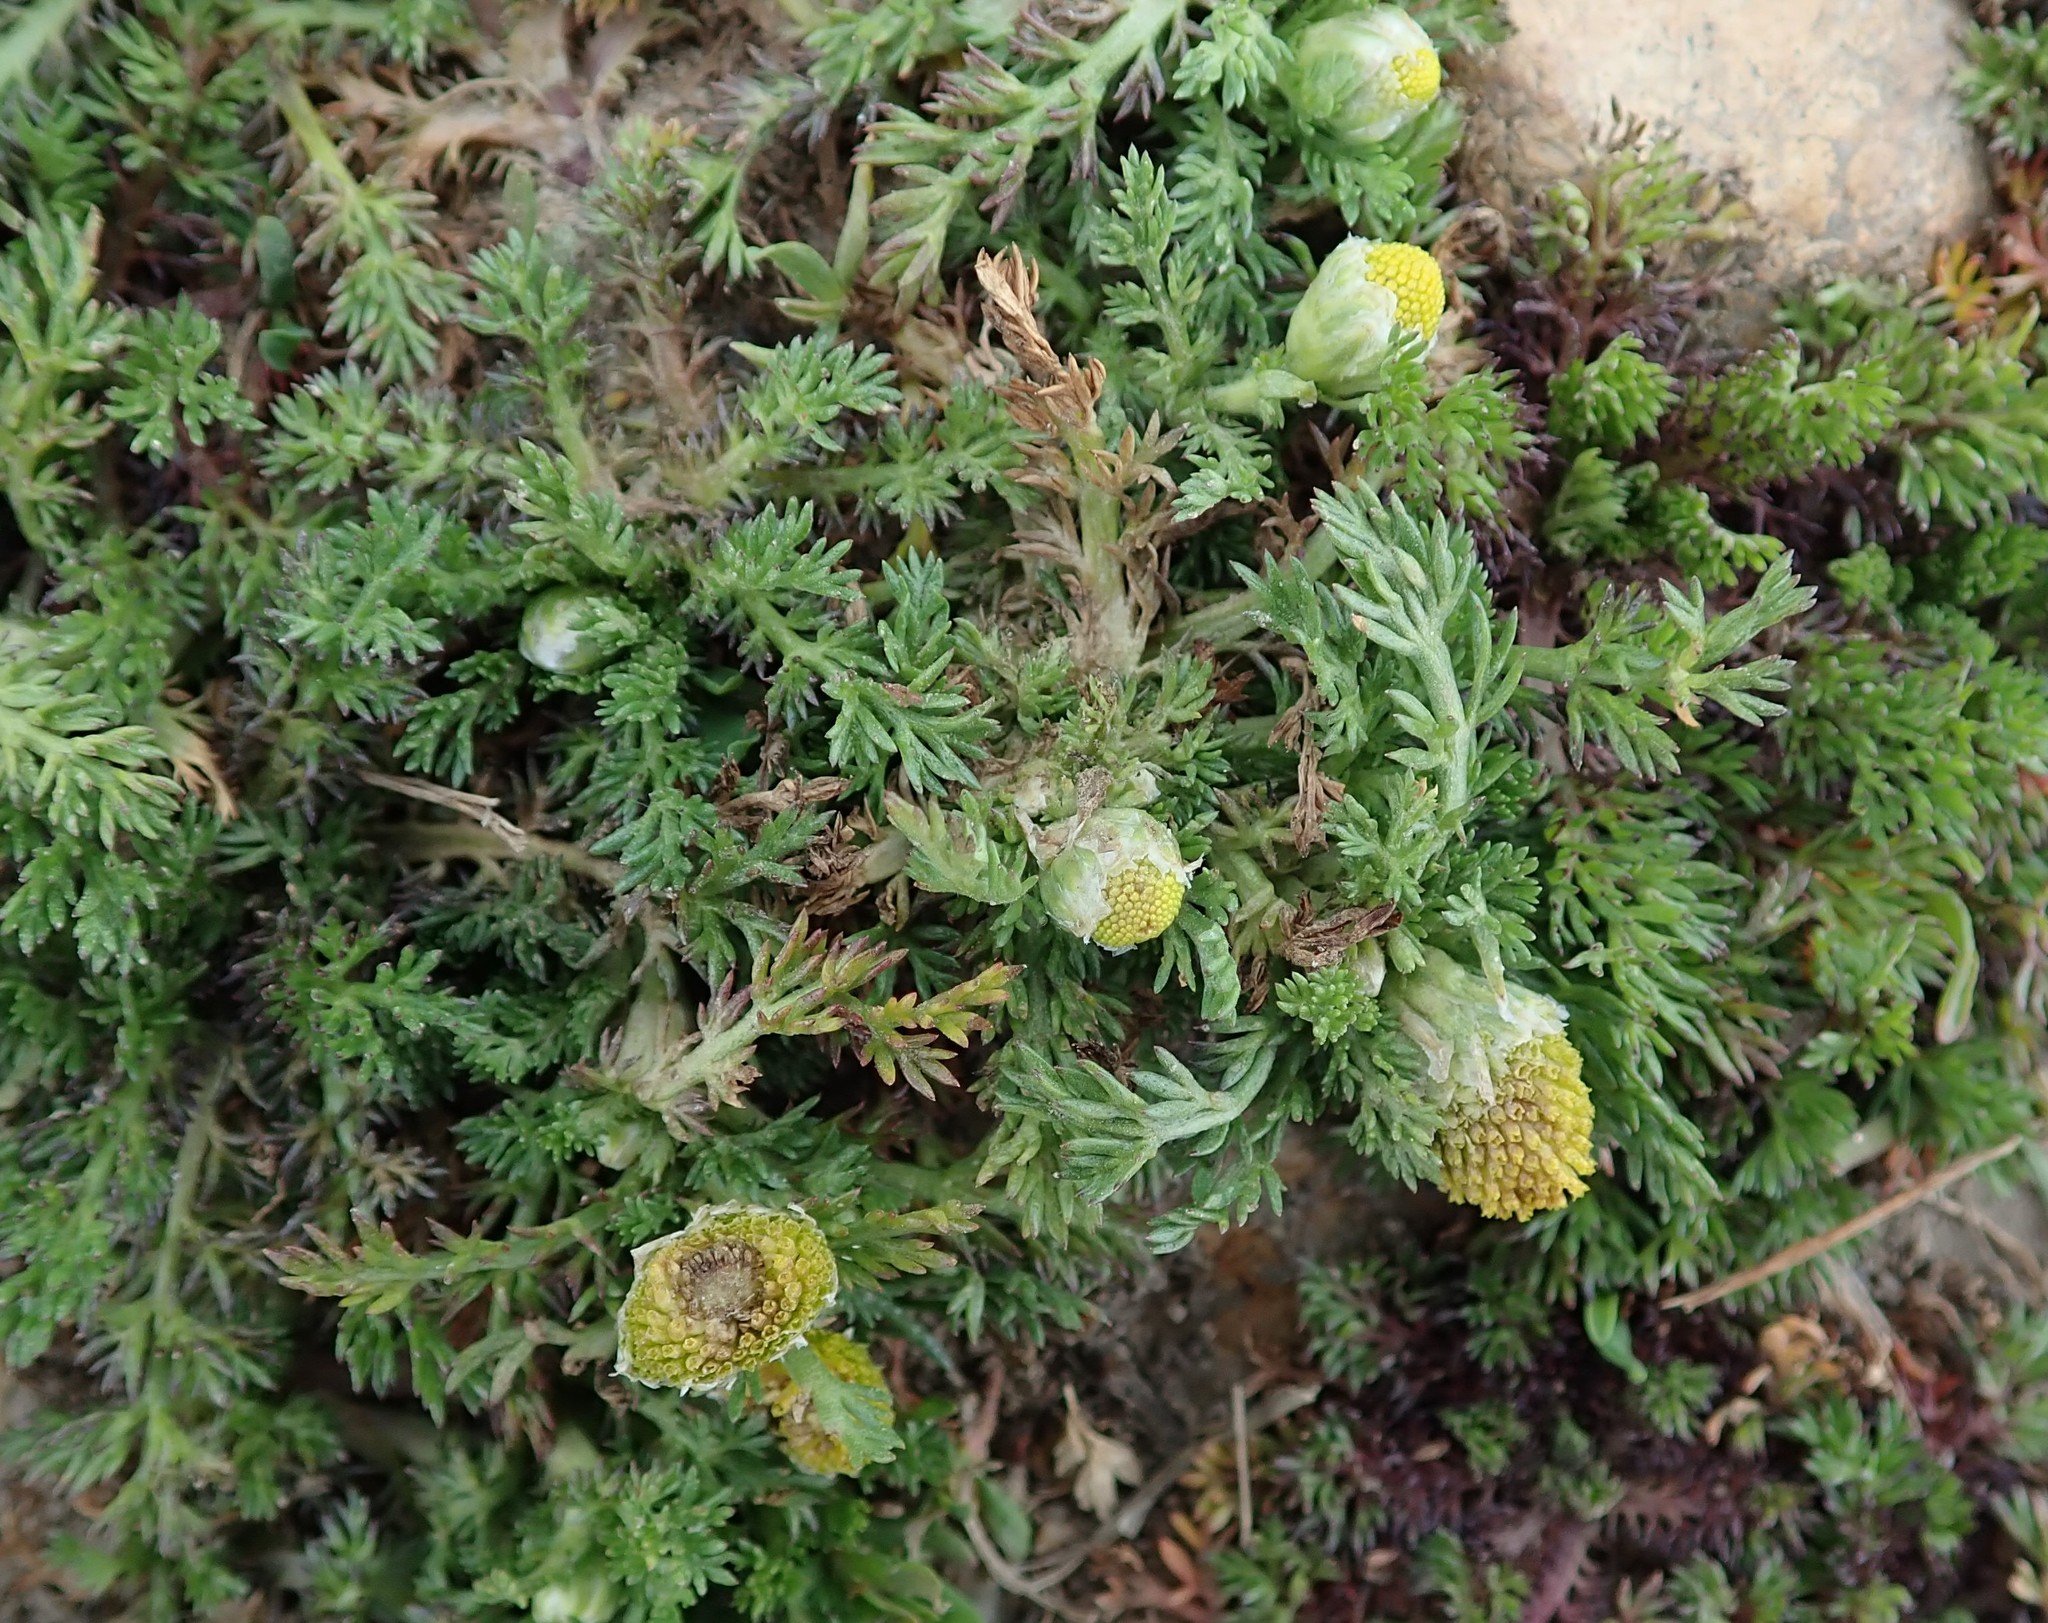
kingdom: Plantae
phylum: Tracheophyta
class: Magnoliopsida
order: Asterales
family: Asteraceae
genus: Matricaria
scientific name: Matricaria discoidea
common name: Disc mayweed
